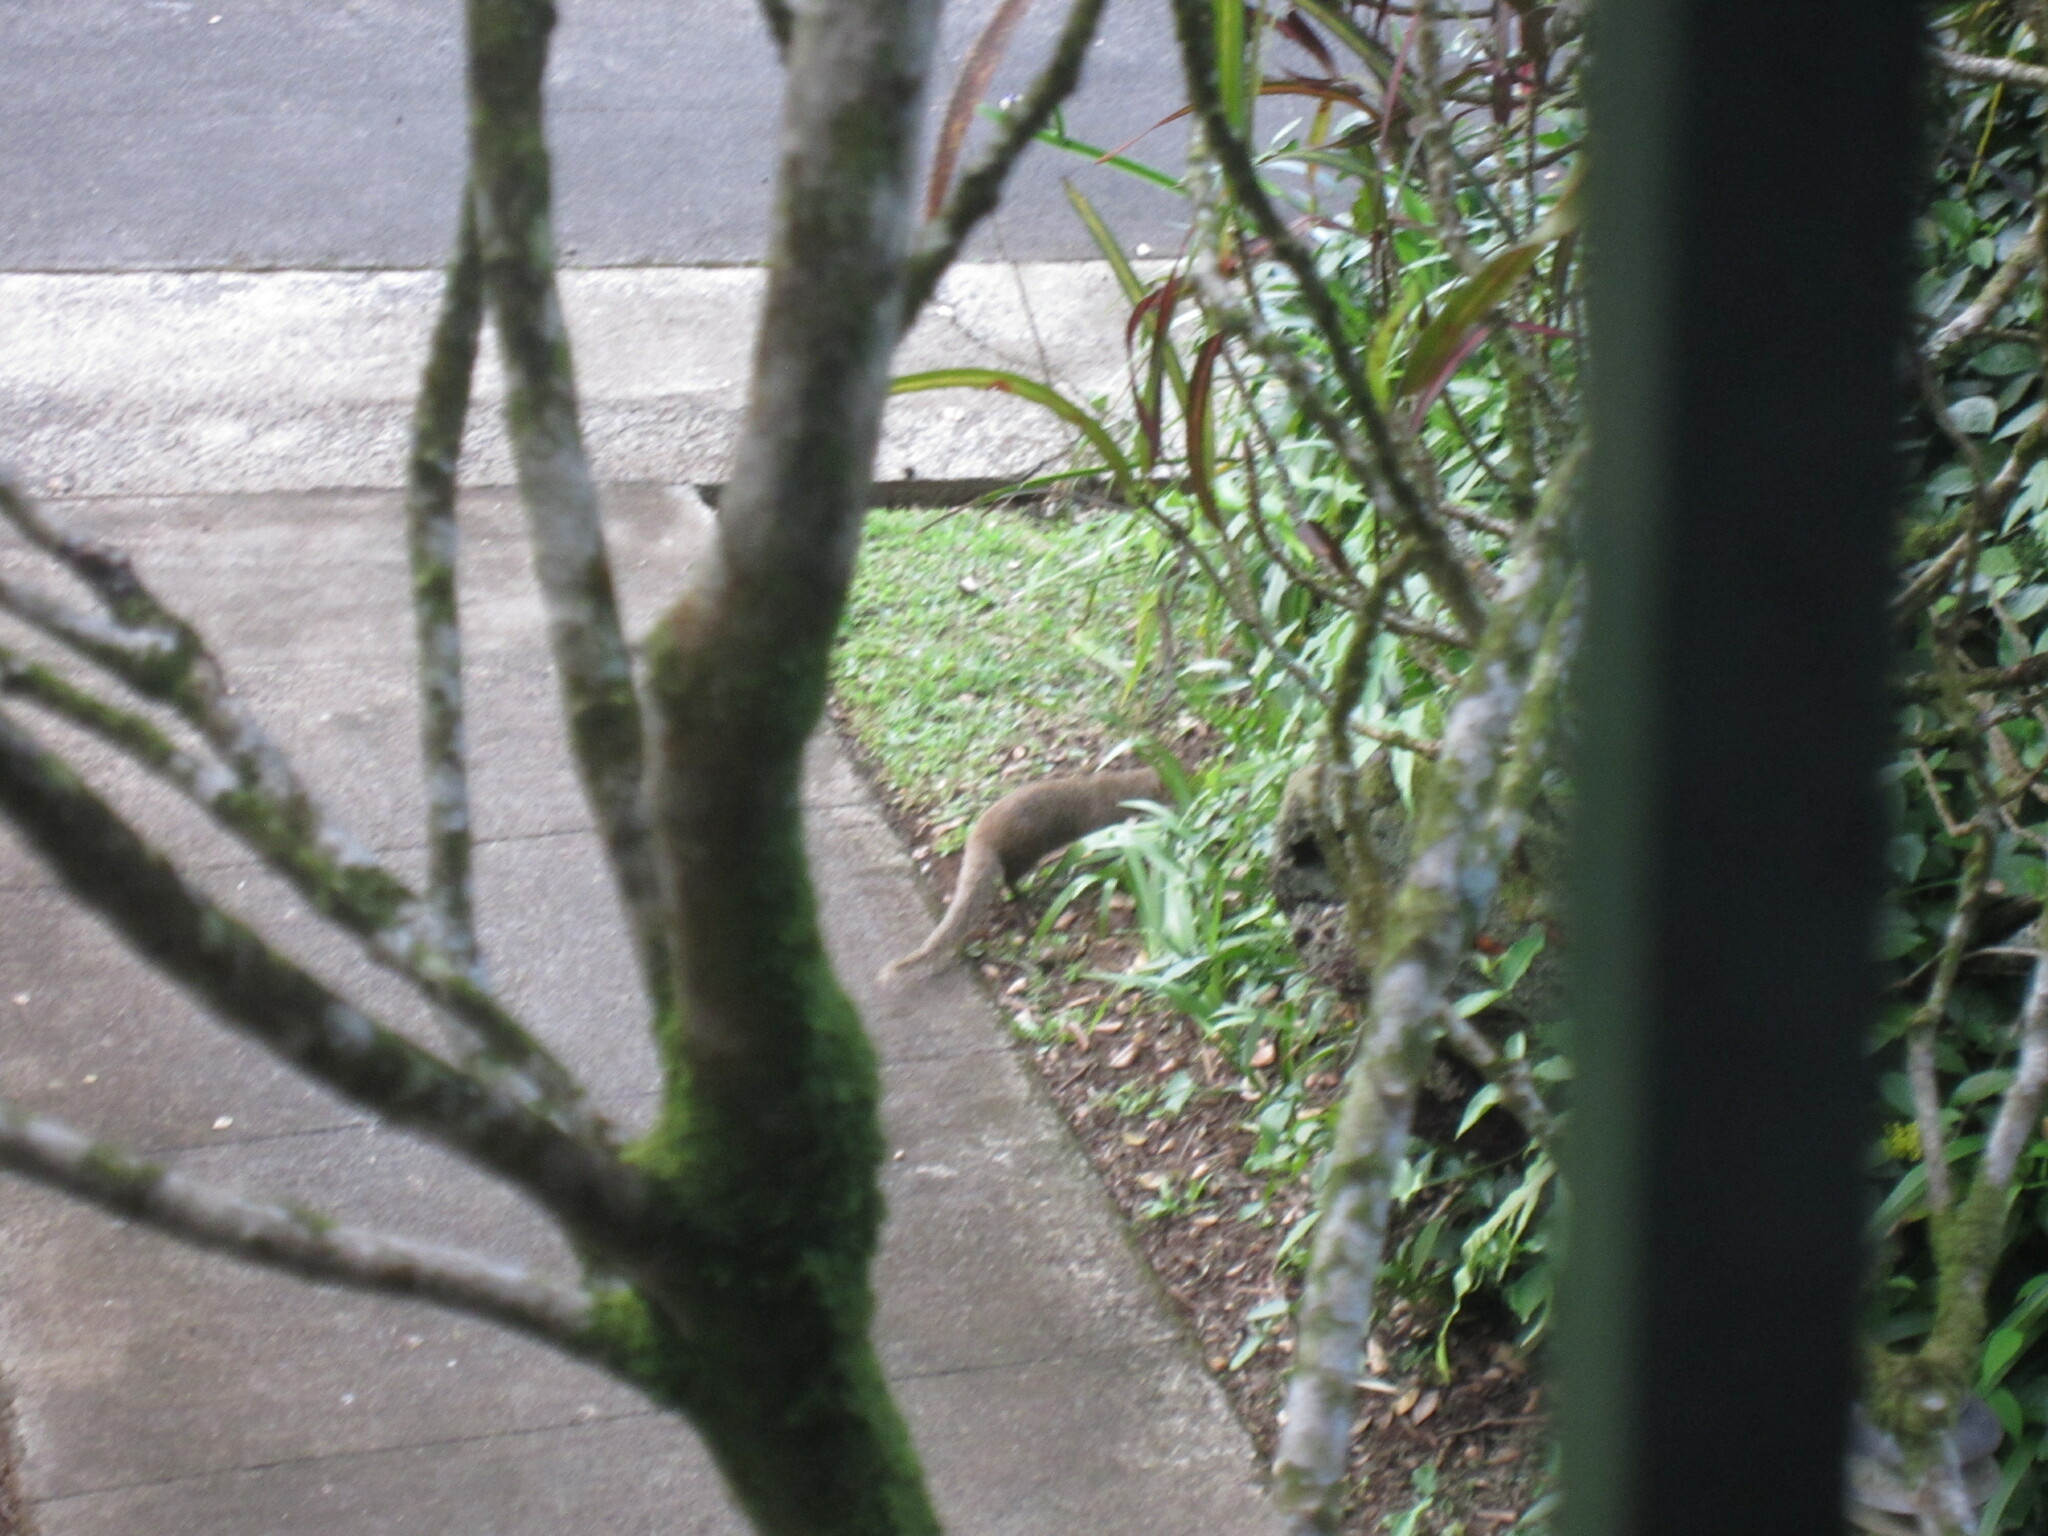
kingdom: Animalia
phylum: Chordata
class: Mammalia
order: Carnivora
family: Herpestidae
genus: Herpestes
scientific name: Herpestes javanicus
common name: Small asian mongoose
